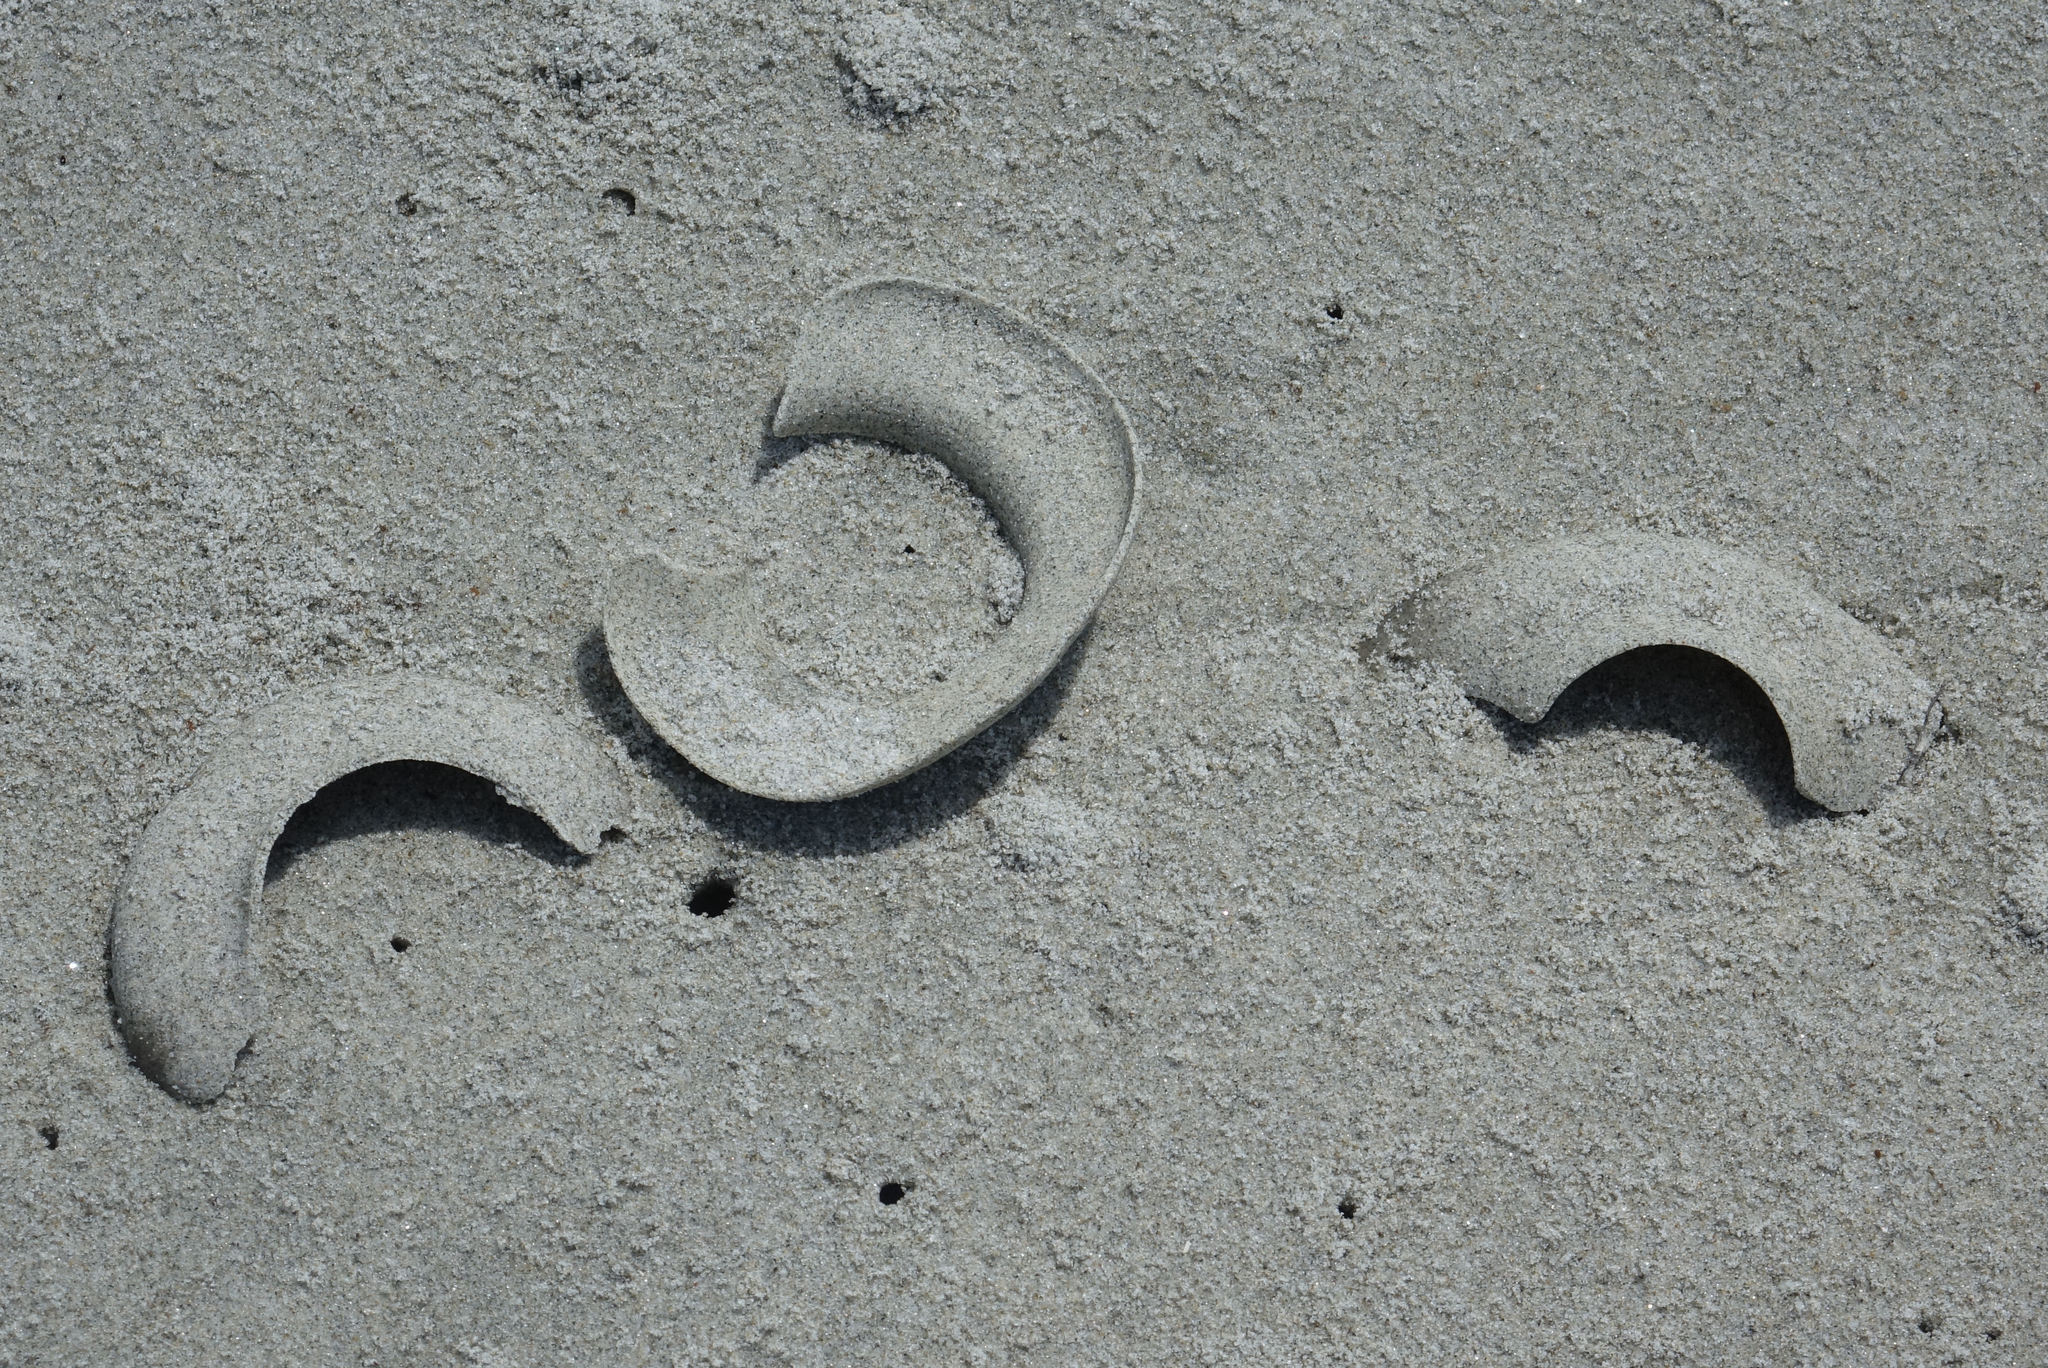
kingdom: Animalia
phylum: Mollusca
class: Gastropoda
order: Littorinimorpha
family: Naticidae
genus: Tanea
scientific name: Tanea zelandica
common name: New zealand moonsnail
